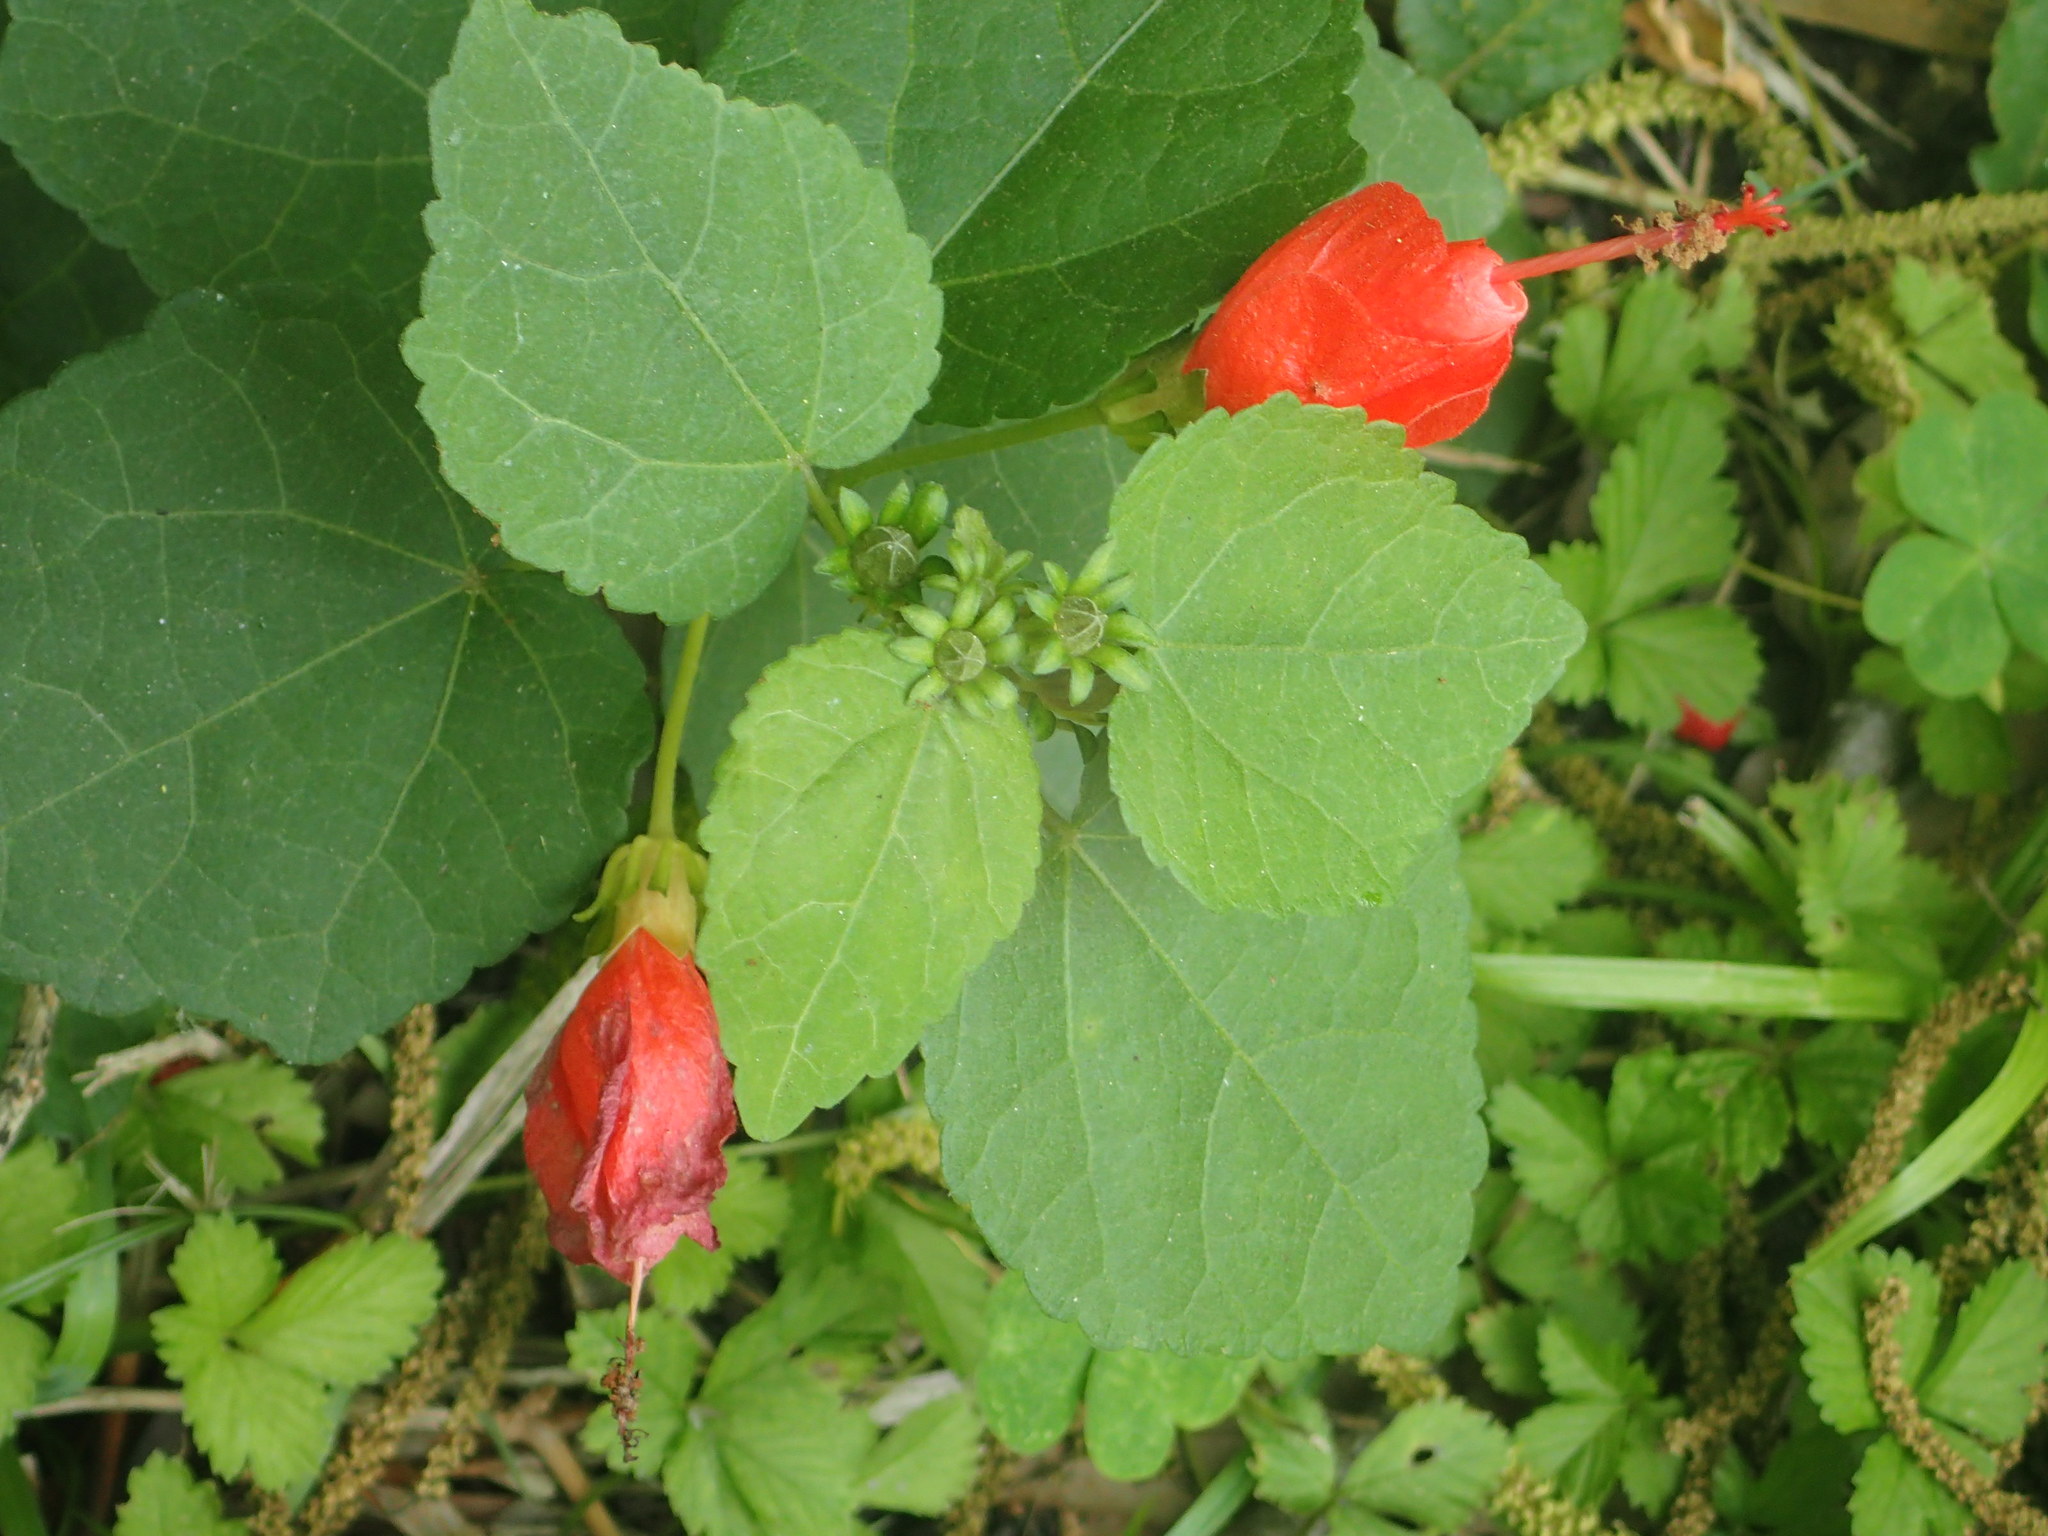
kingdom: Plantae
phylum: Tracheophyta
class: Magnoliopsida
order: Malvales
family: Malvaceae
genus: Malvaviscus
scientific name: Malvaviscus arboreus
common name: Wax mallow
